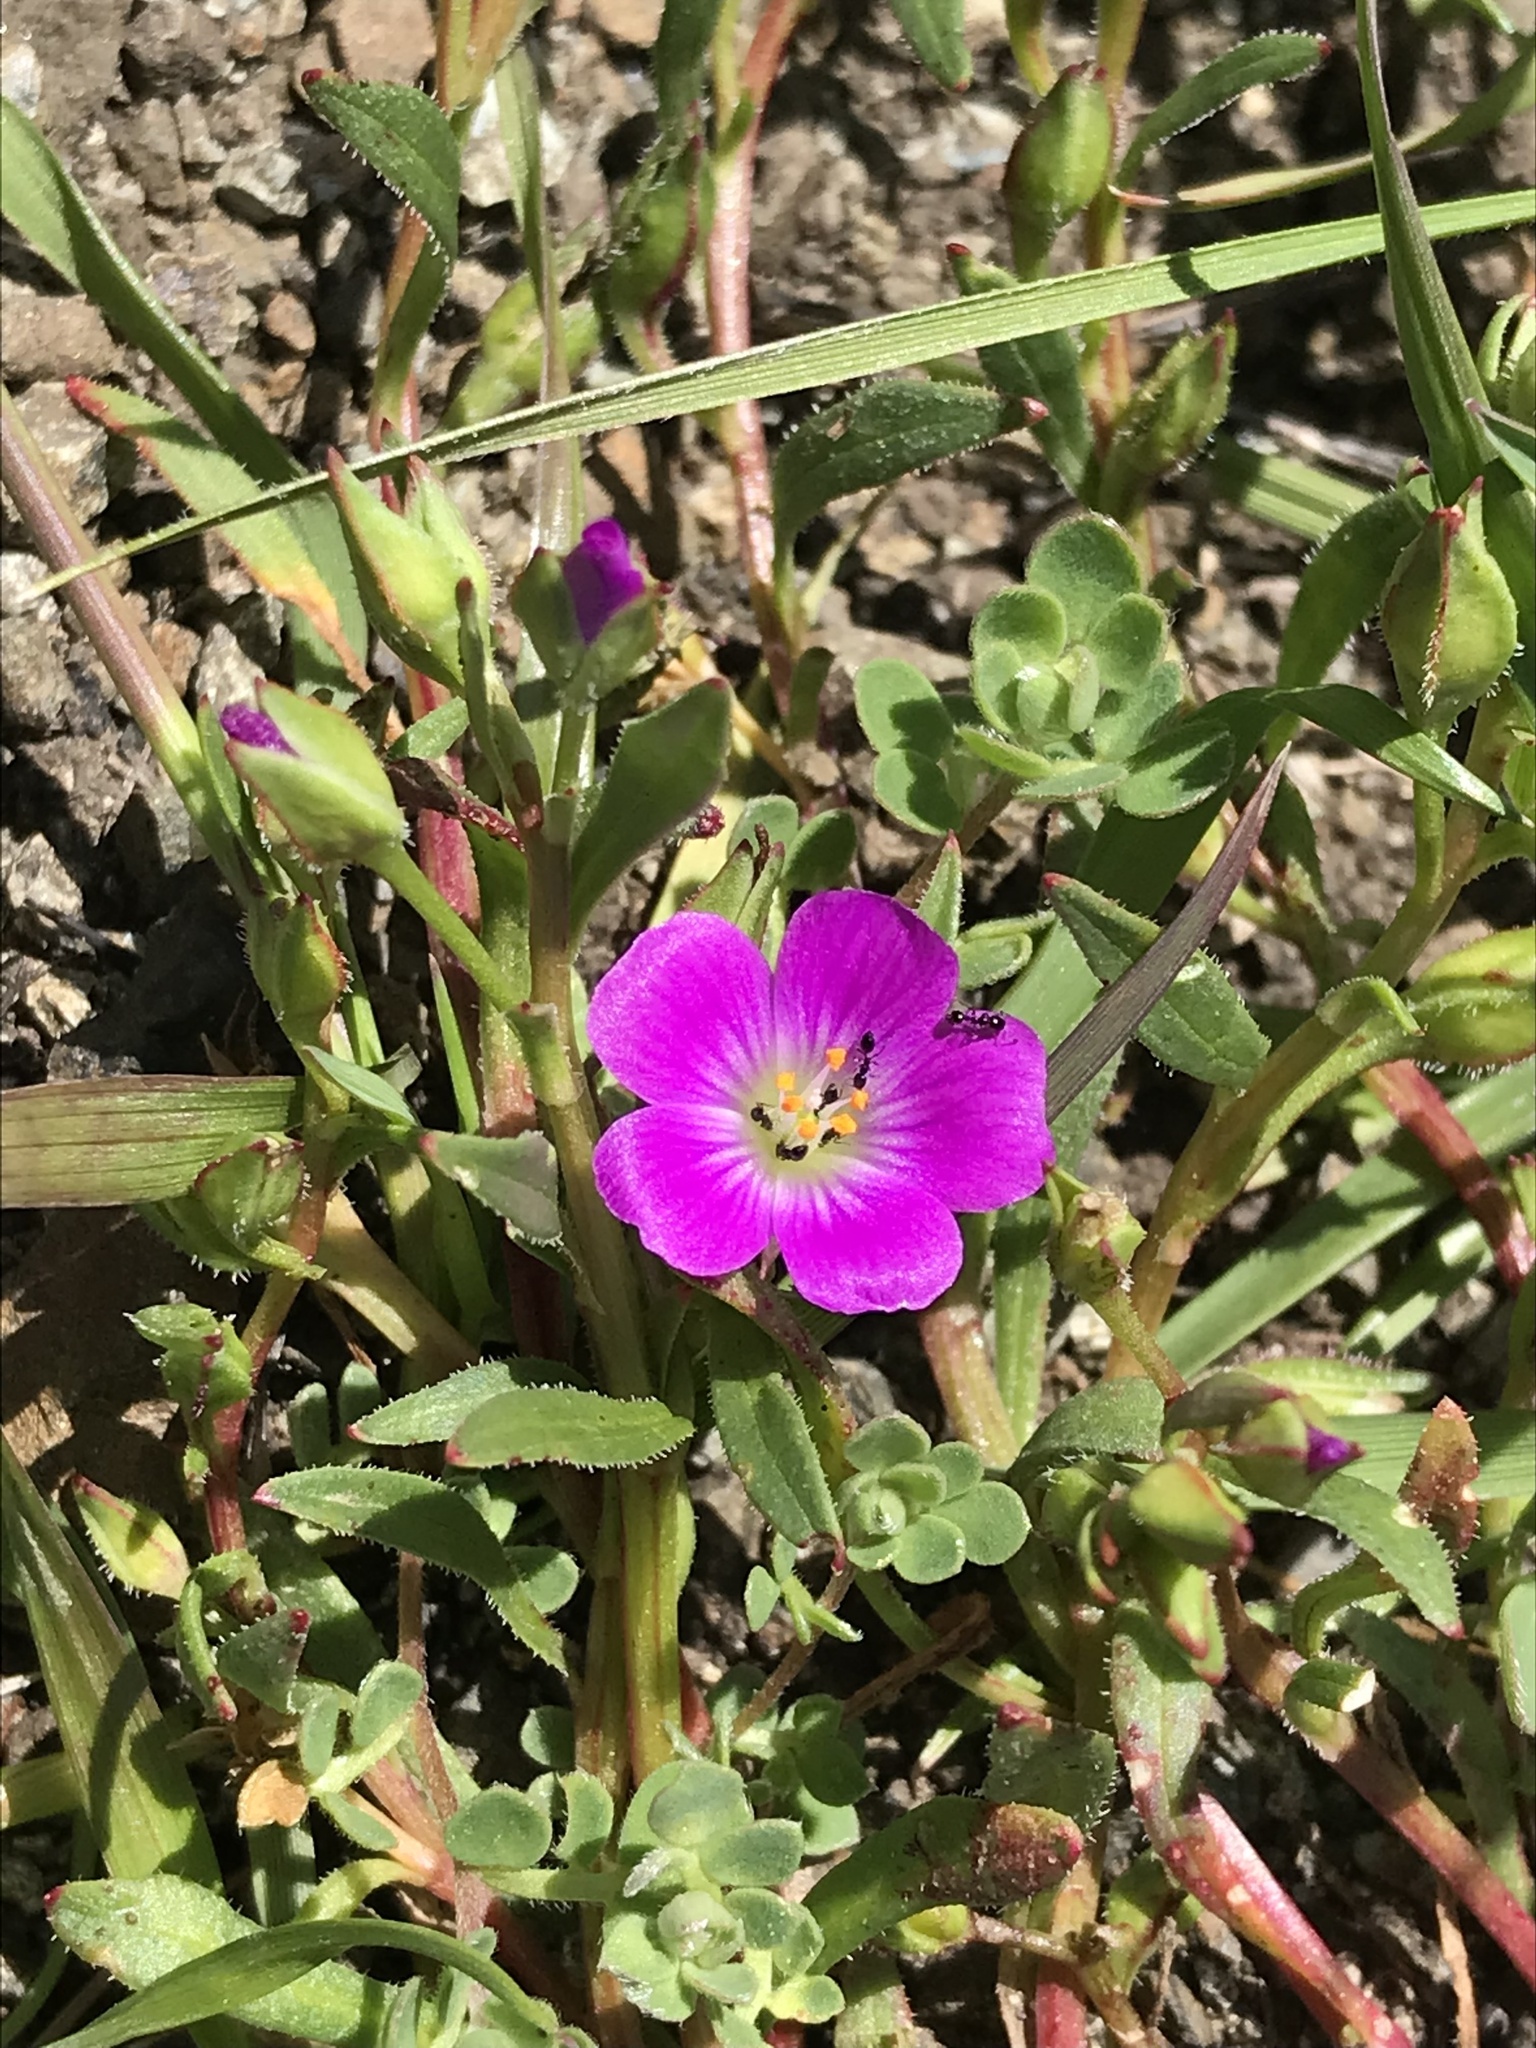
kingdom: Plantae
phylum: Tracheophyta
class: Magnoliopsida
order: Caryophyllales
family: Montiaceae
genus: Calandrinia
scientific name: Calandrinia menziesii
